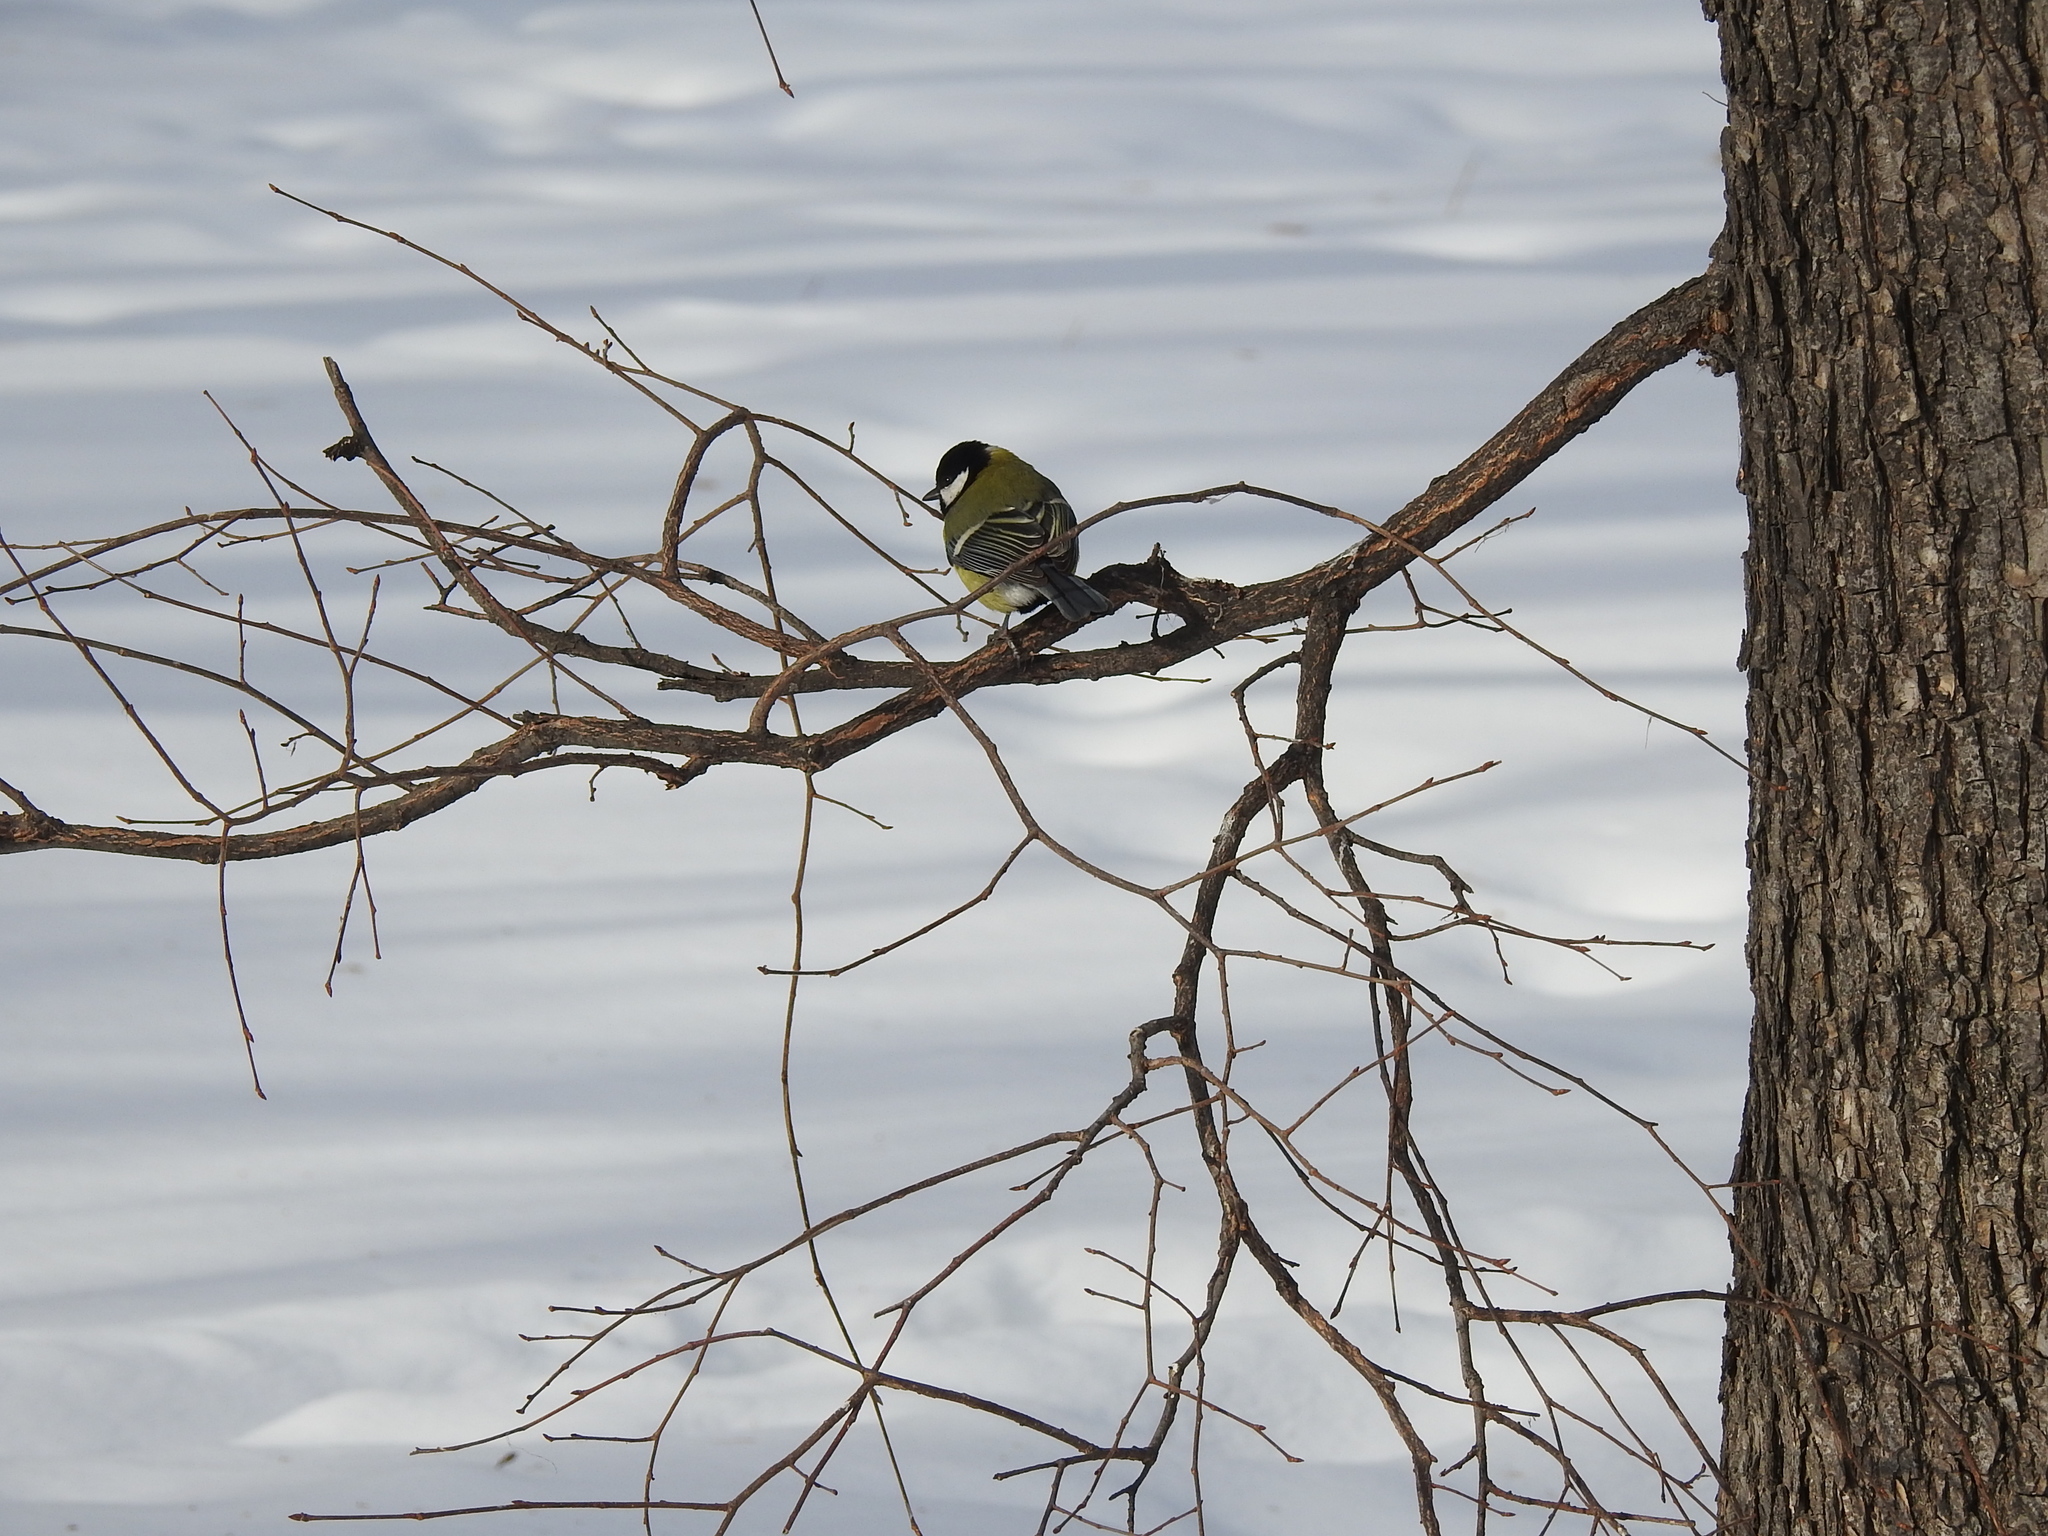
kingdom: Animalia
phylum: Chordata
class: Aves
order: Passeriformes
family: Paridae
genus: Parus
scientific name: Parus major
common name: Great tit
